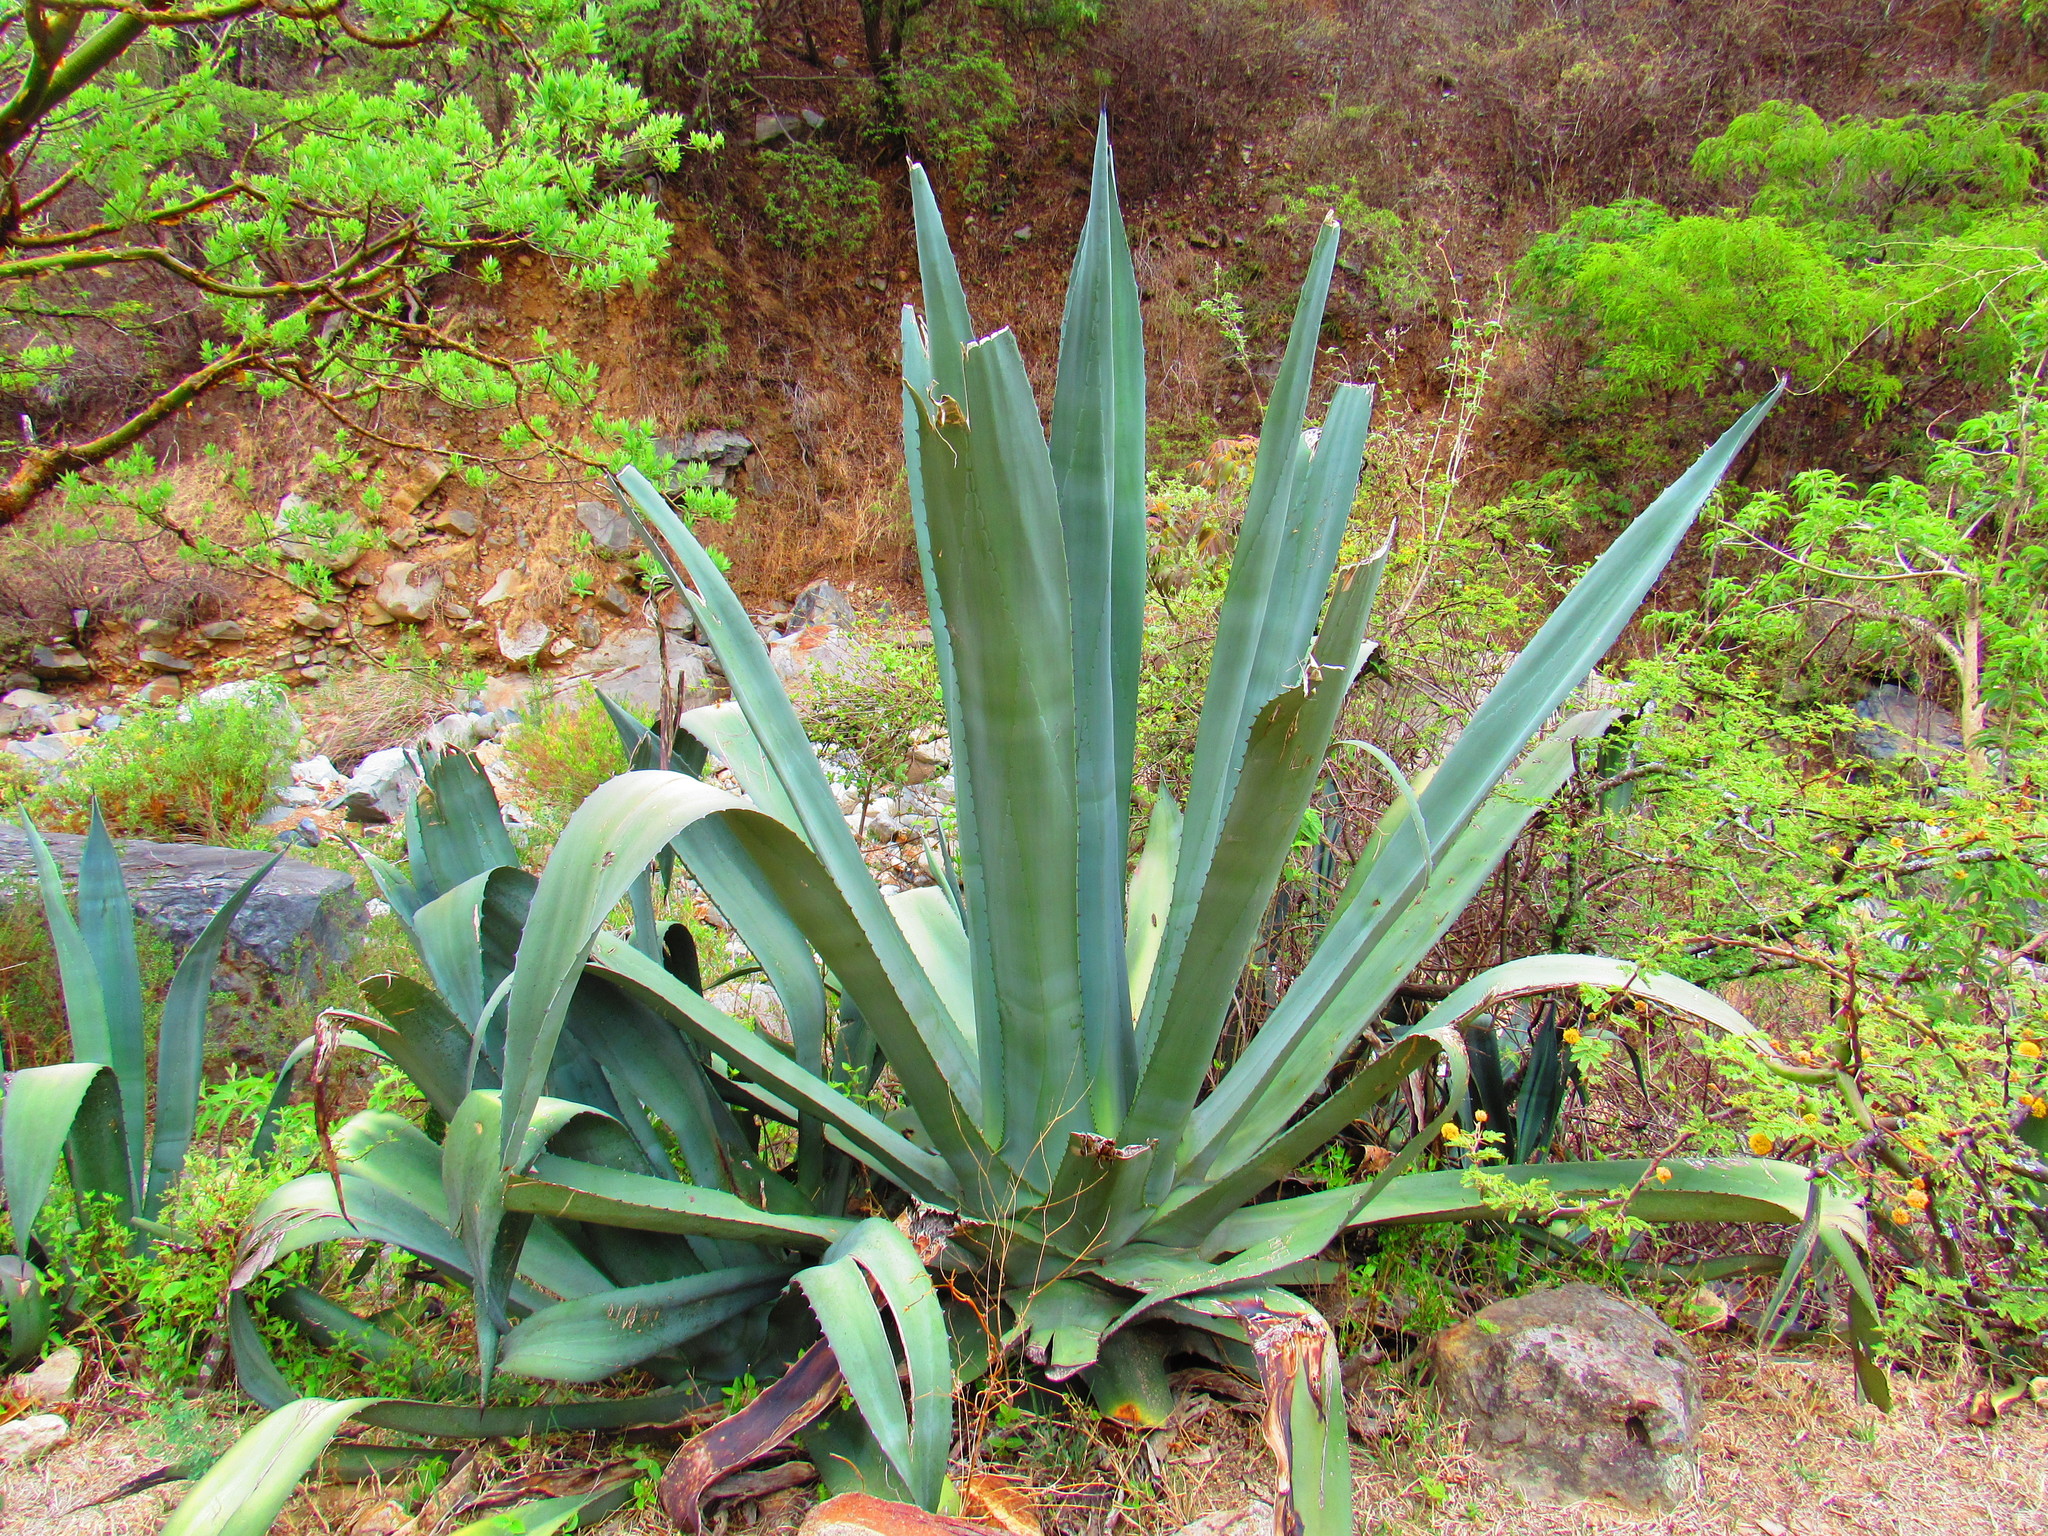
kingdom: Plantae
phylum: Tracheophyta
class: Liliopsida
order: Asparagales
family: Asparagaceae
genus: Agave
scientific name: Agave americana
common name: Centuryplant
